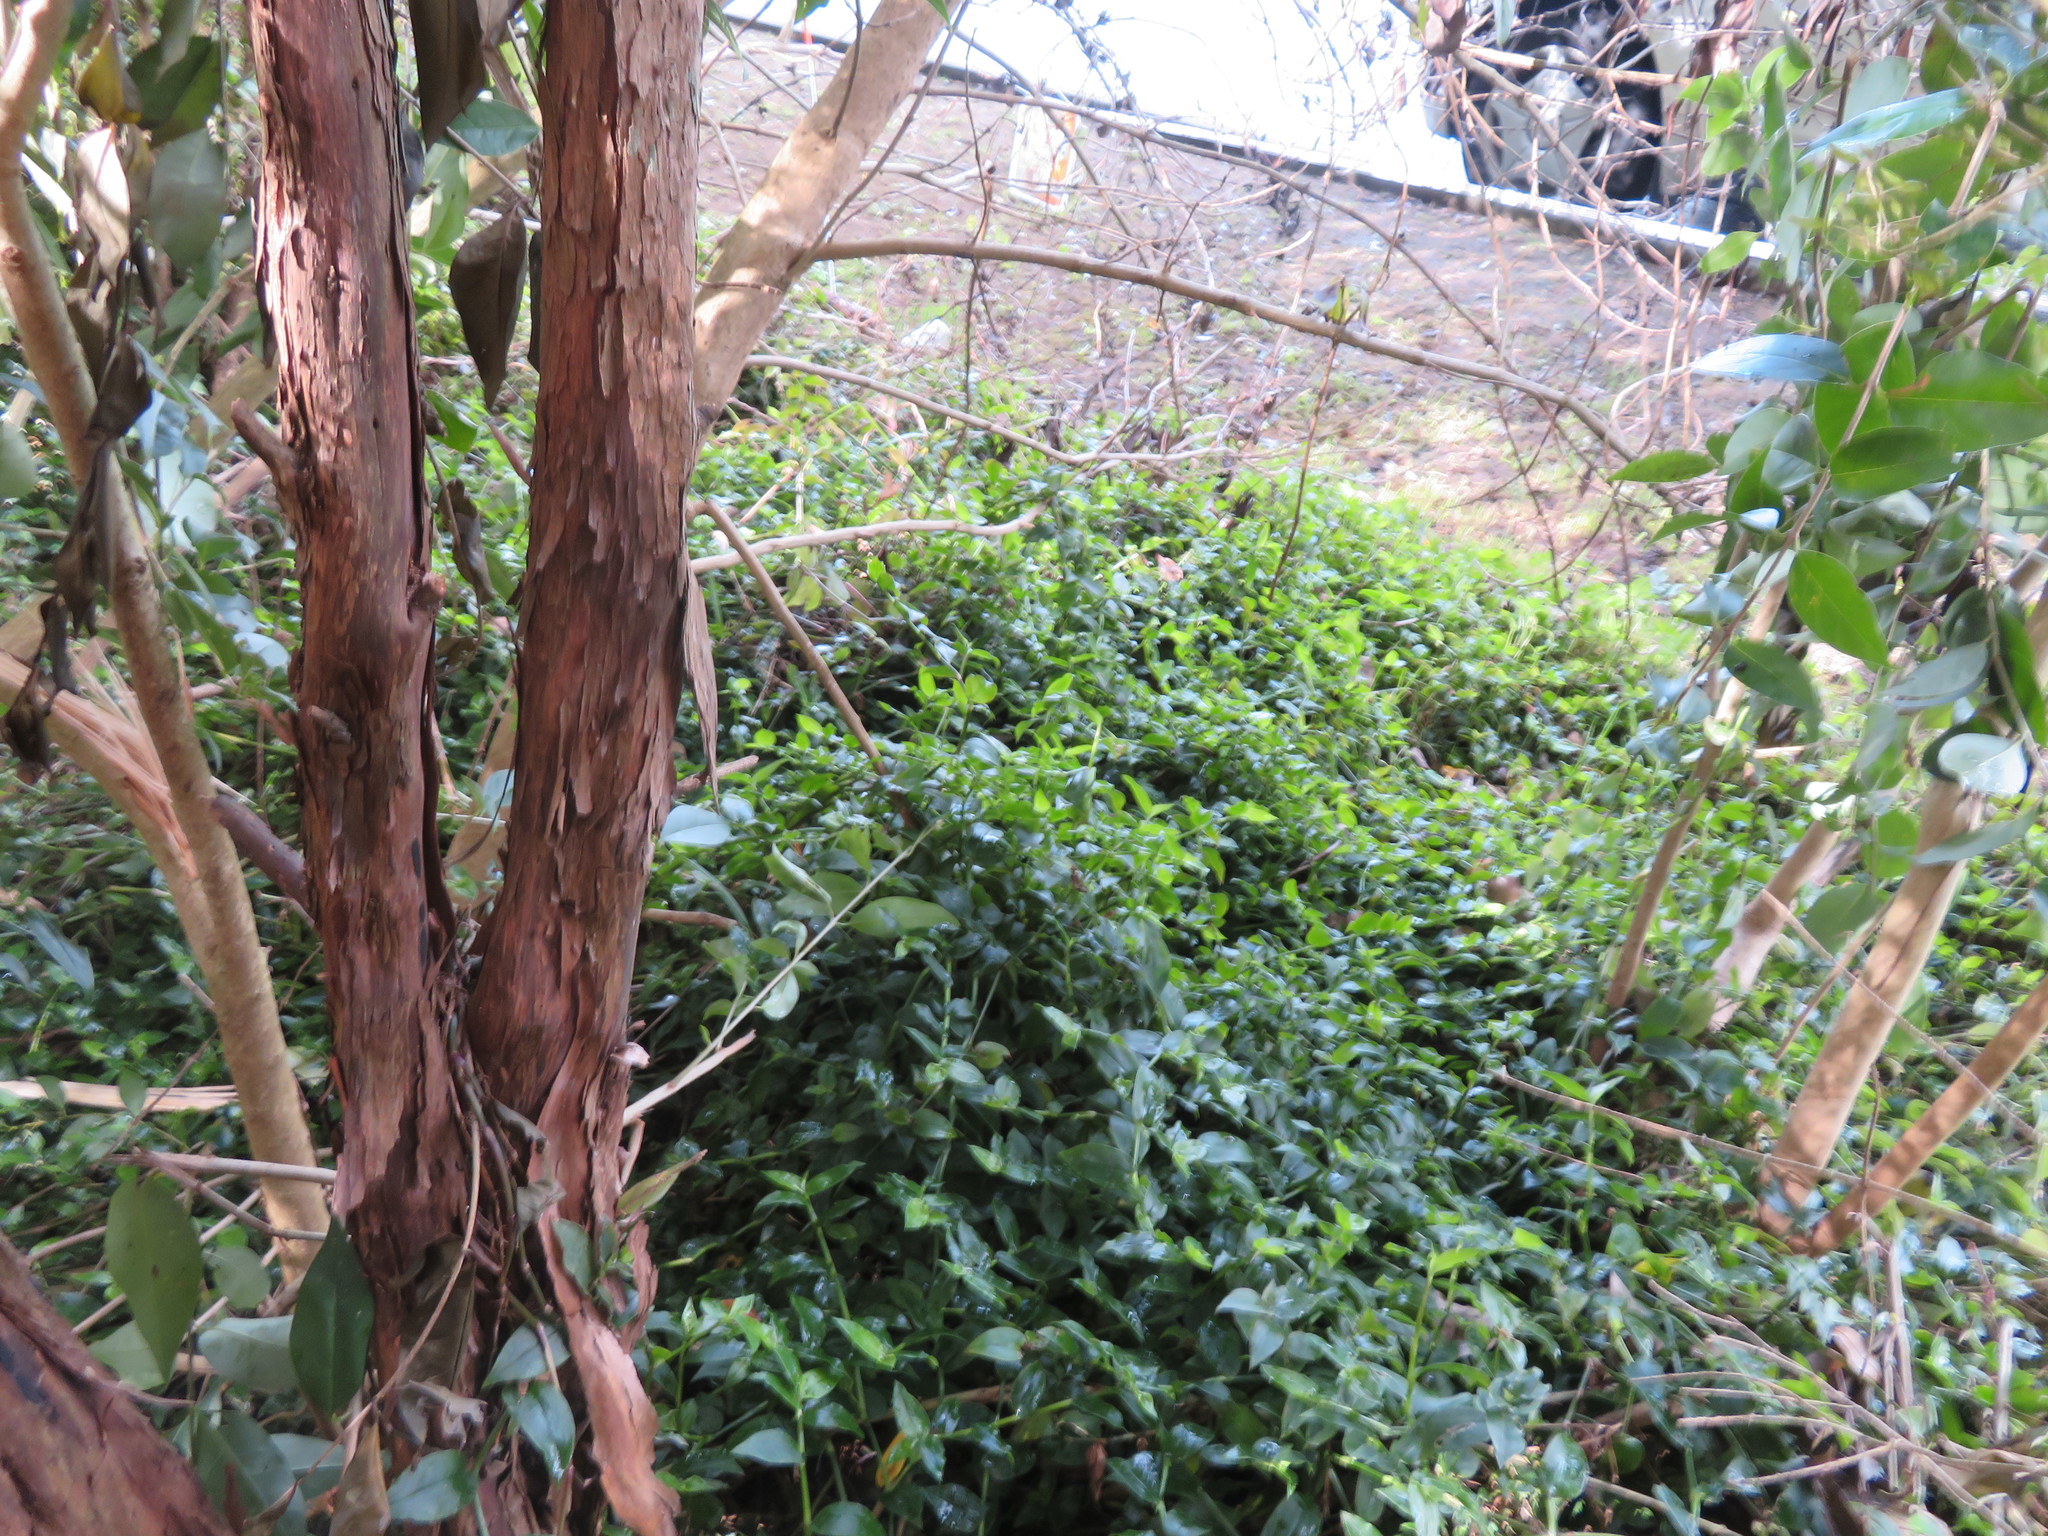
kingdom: Plantae
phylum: Tracheophyta
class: Liliopsida
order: Commelinales
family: Commelinaceae
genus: Tradescantia
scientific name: Tradescantia fluminensis
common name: Wandering-jew
